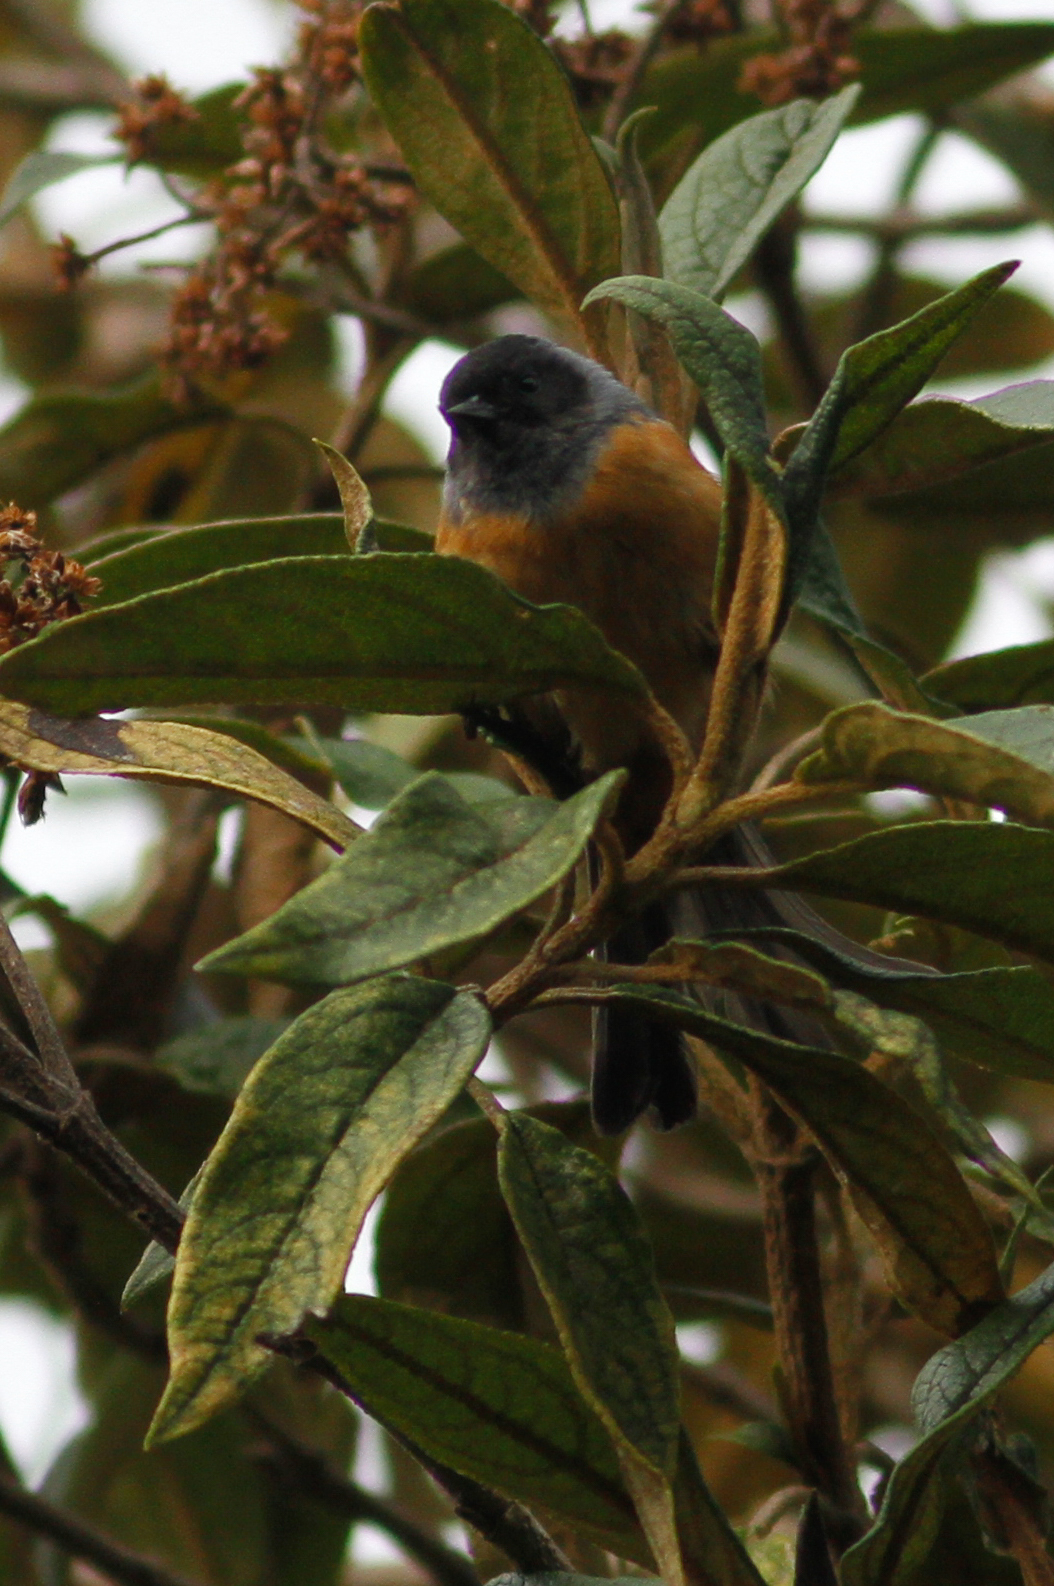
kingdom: Animalia
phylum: Chordata
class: Aves
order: Passeriformes
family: Thraupidae
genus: Conirostrum
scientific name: Conirostrum sitticolor
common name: Blue-backed conebill
